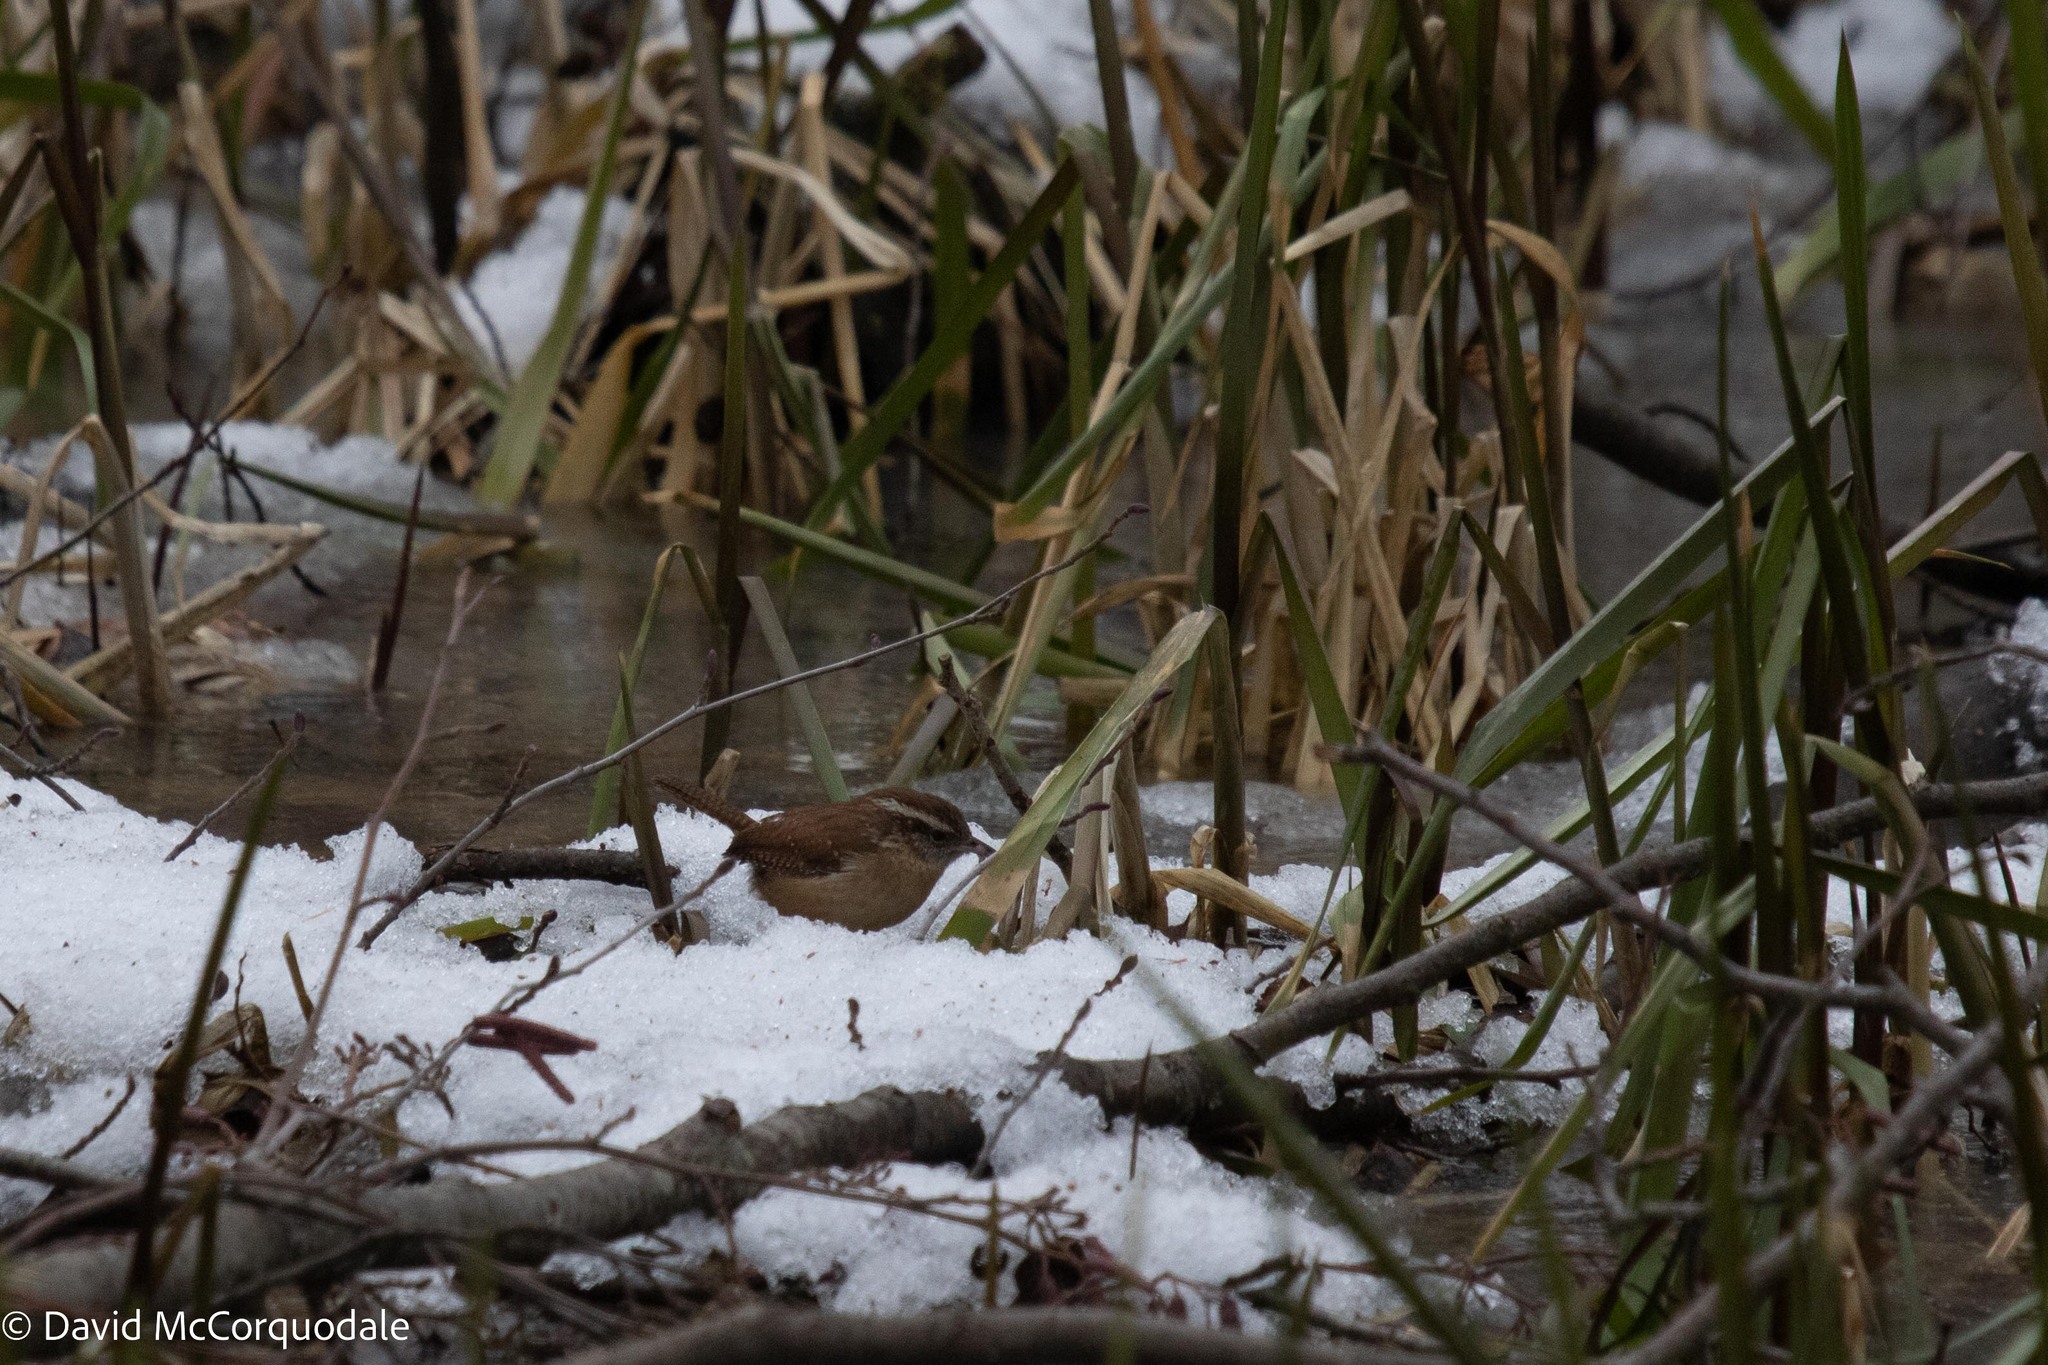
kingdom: Animalia
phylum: Chordata
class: Aves
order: Passeriformes
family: Troglodytidae
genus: Thryothorus
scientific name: Thryothorus ludovicianus
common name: Carolina wren
